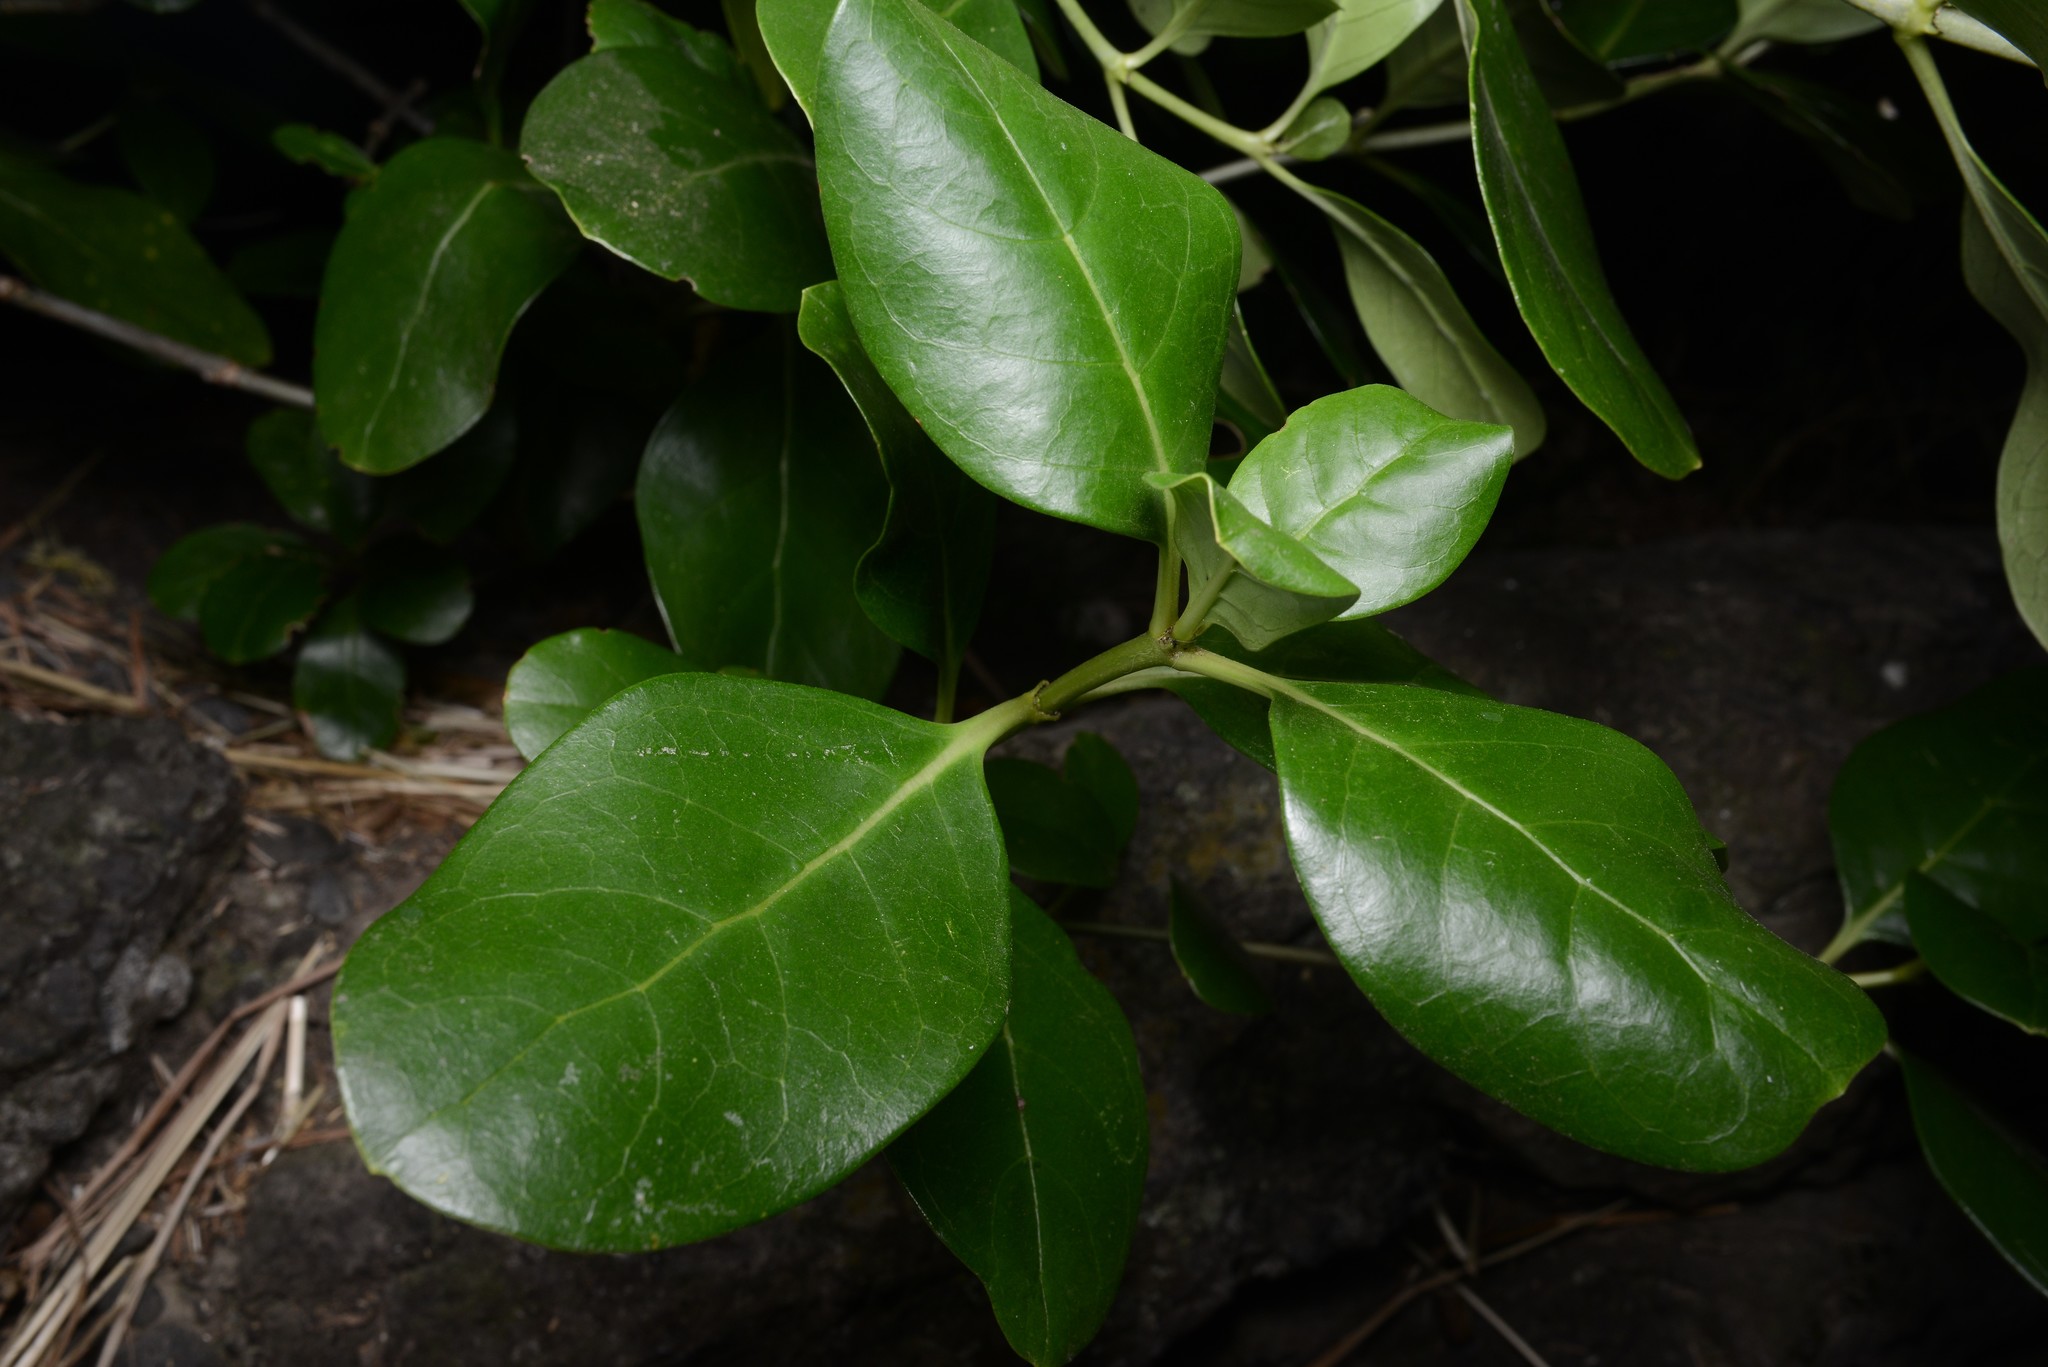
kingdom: Plantae
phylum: Tracheophyta
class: Magnoliopsida
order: Gentianales
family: Rubiaceae
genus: Coprosma
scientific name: Coprosma repens
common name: Tree bedstraw
